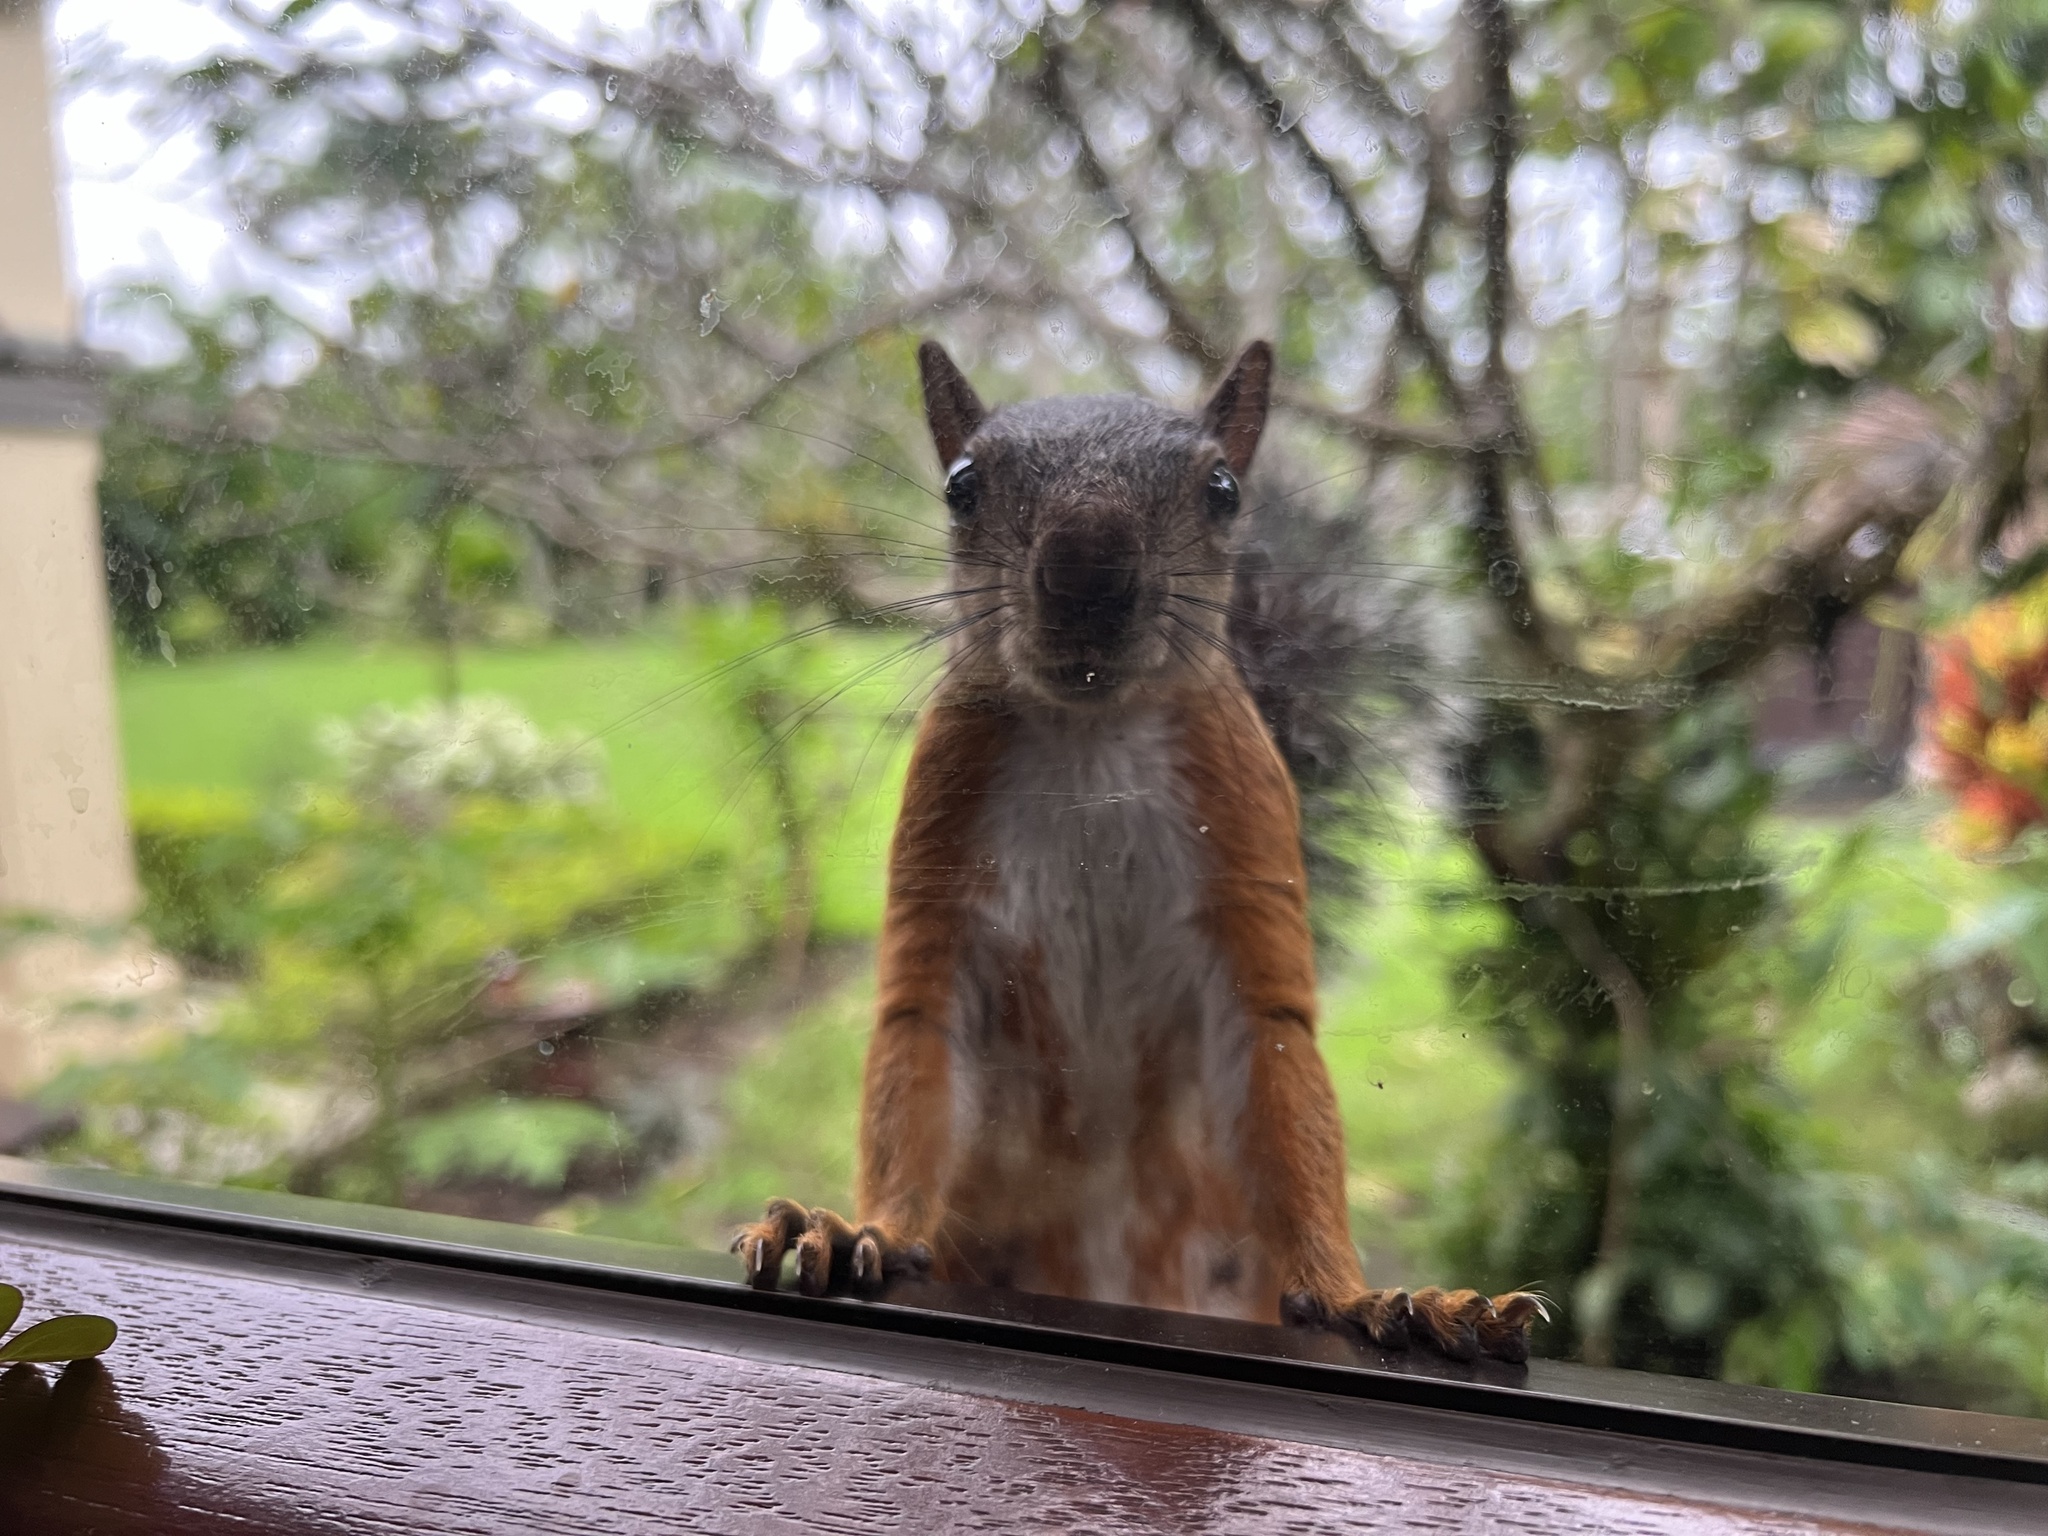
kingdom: Animalia
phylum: Chordata
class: Mammalia
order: Rodentia
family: Sciuridae
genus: Sciurus
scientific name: Sciurus variegatoides
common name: Variegated squirrel
